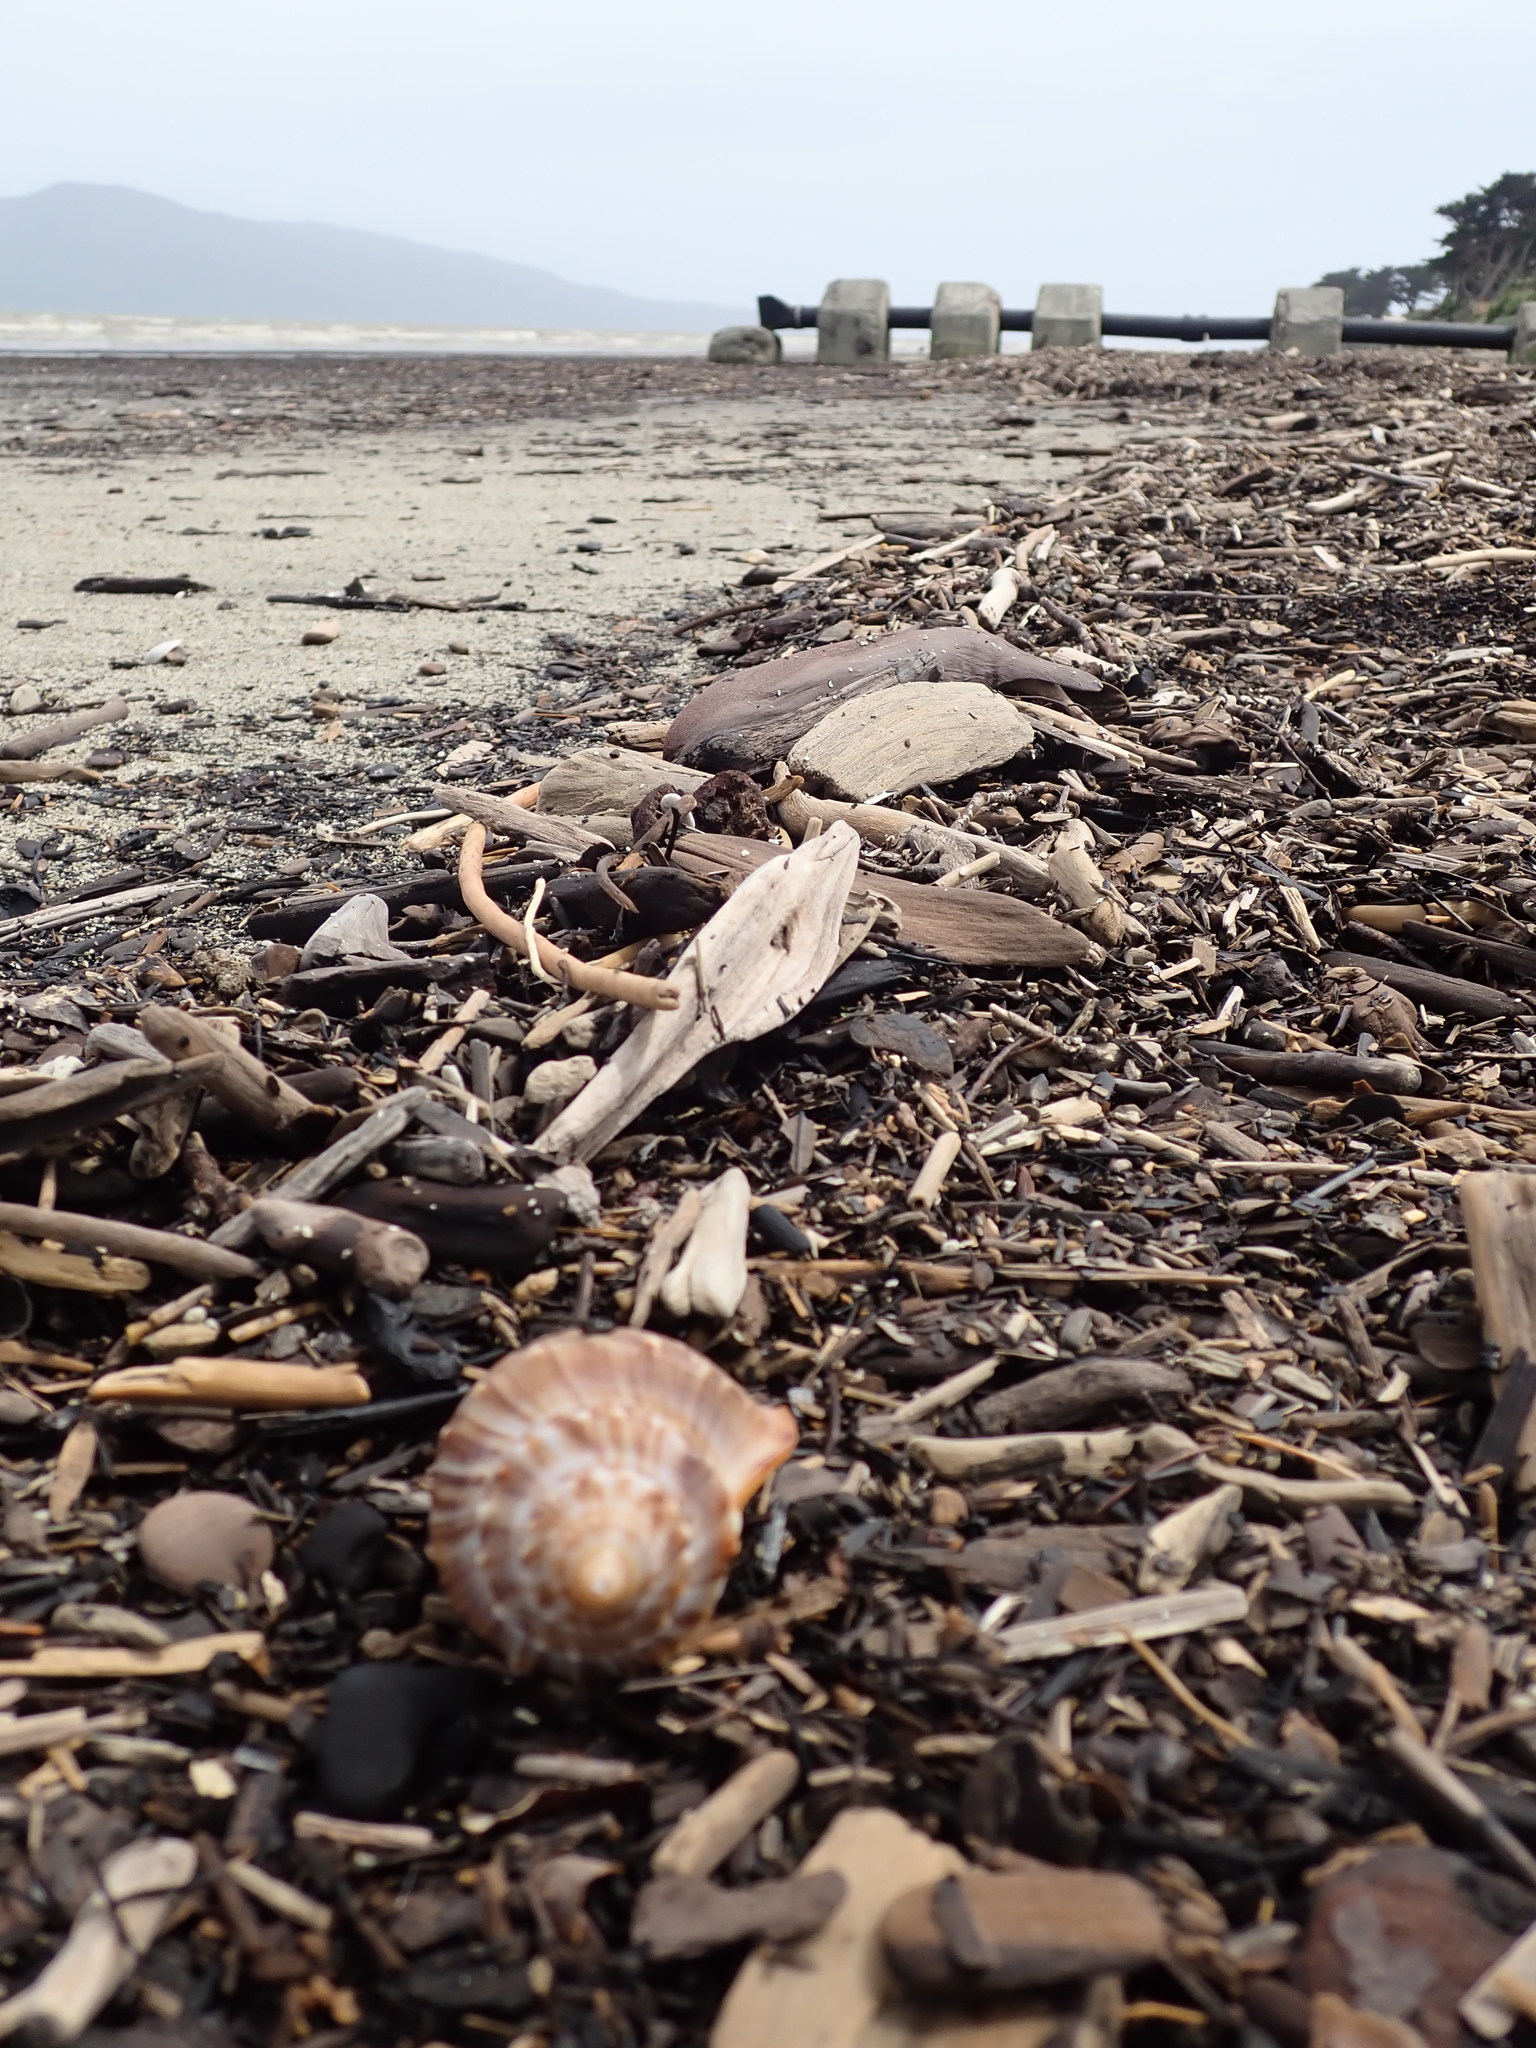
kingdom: Animalia
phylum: Mollusca
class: Gastropoda
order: Littorinimorpha
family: Struthiolariidae
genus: Struthiolaria
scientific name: Struthiolaria papulosa
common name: Large ostrich foot
